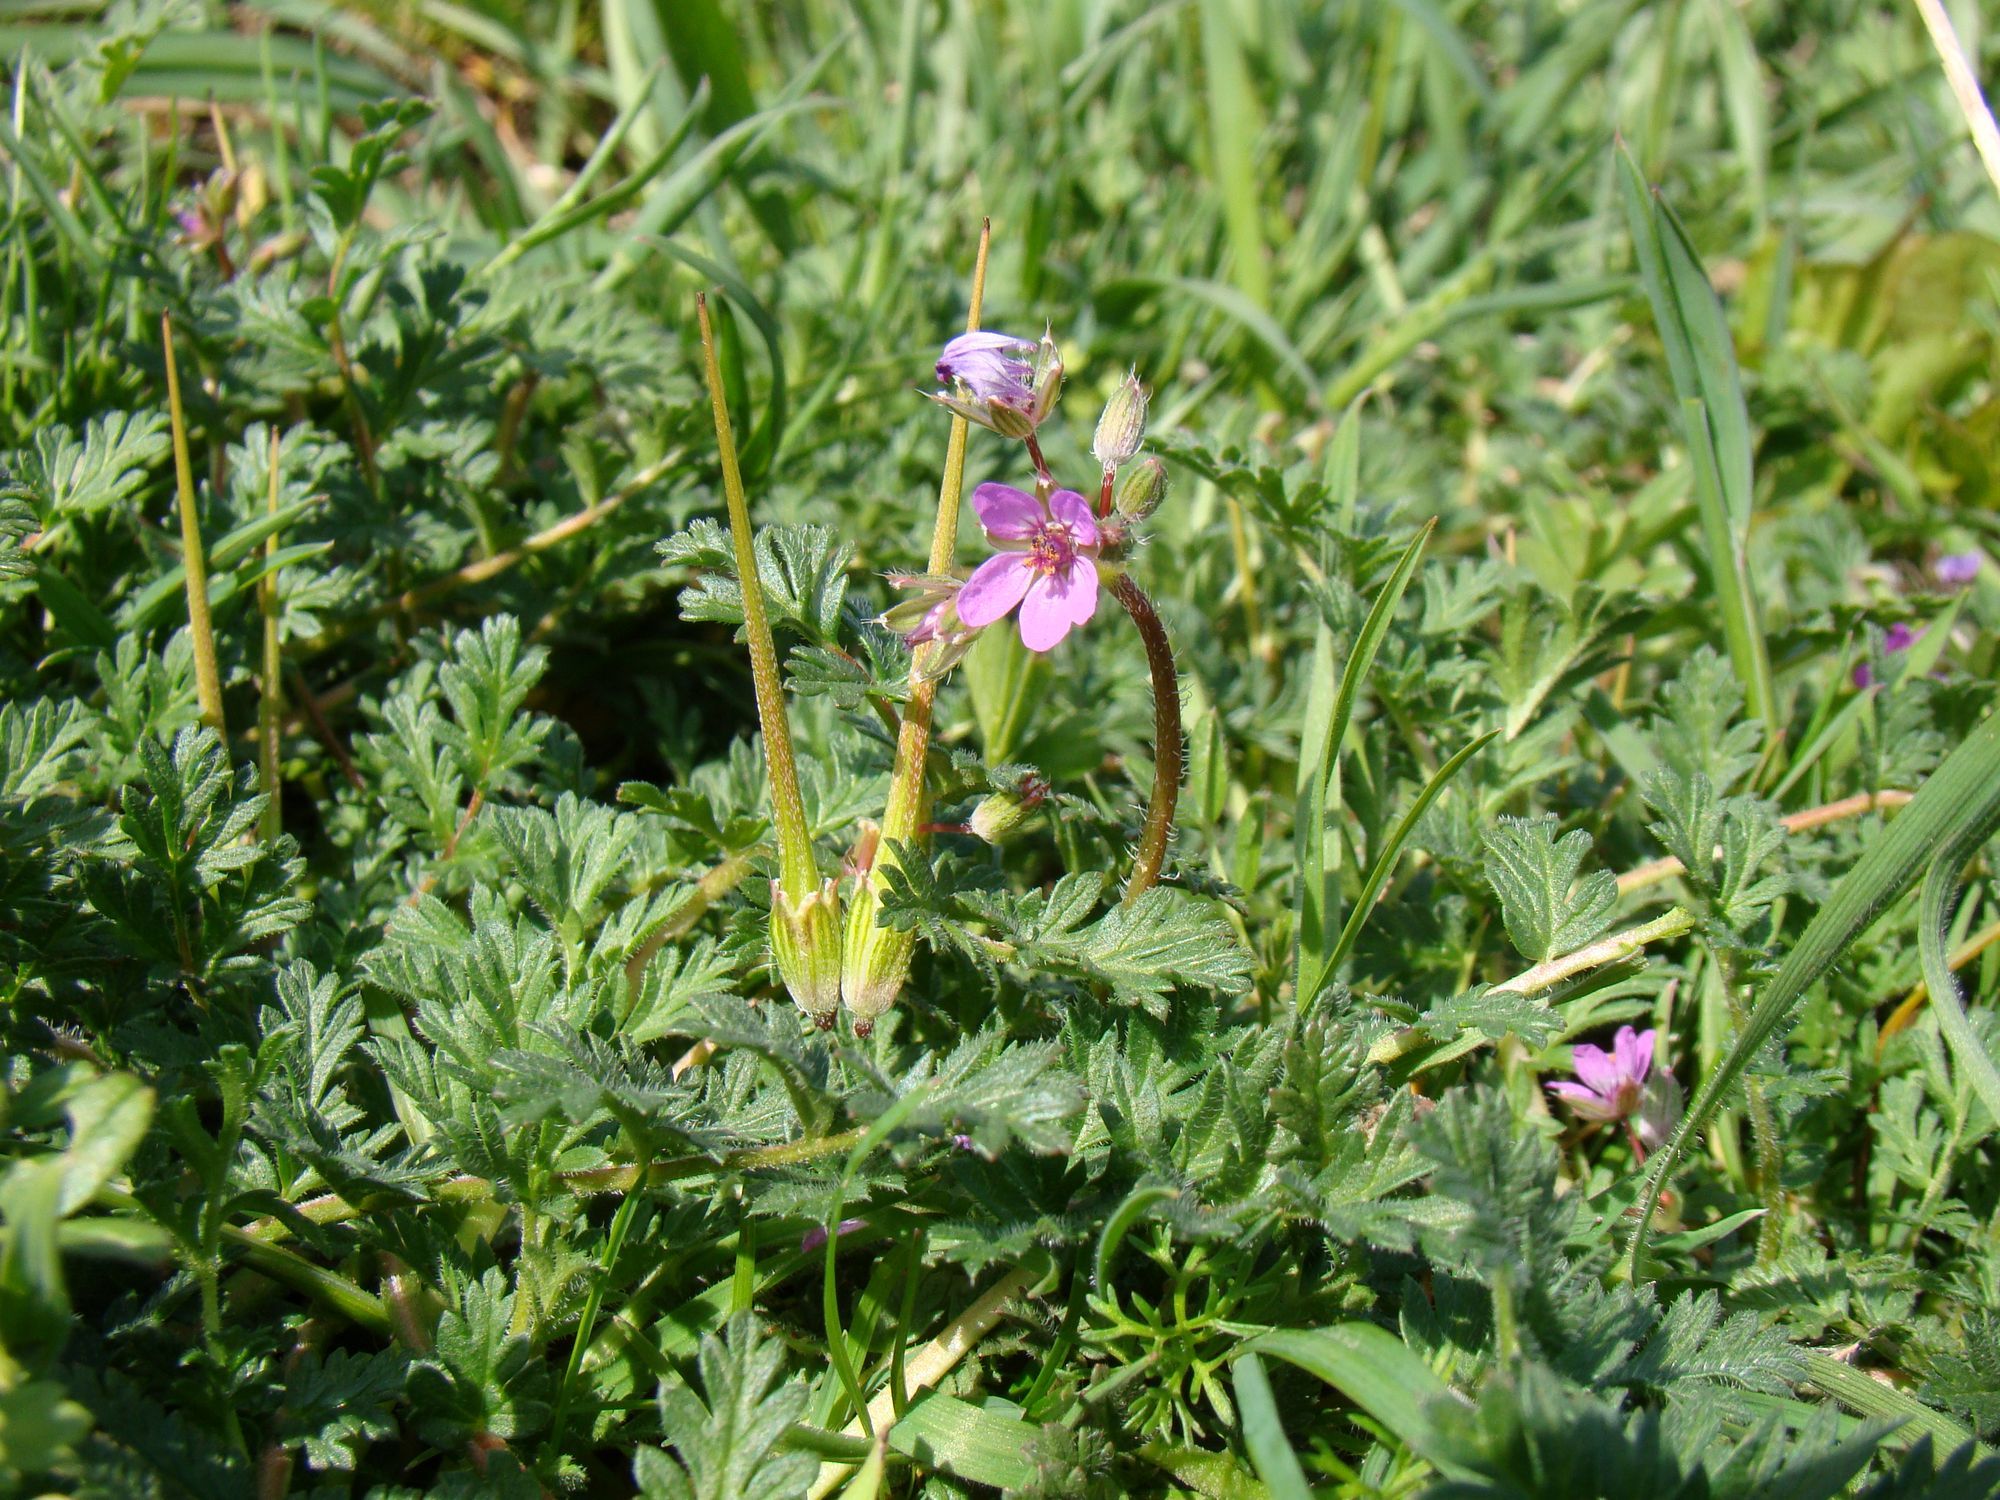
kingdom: Plantae
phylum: Tracheophyta
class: Magnoliopsida
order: Geraniales
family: Geraniaceae
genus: Erodium
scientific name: Erodium cicutarium
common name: Common stork's-bill
